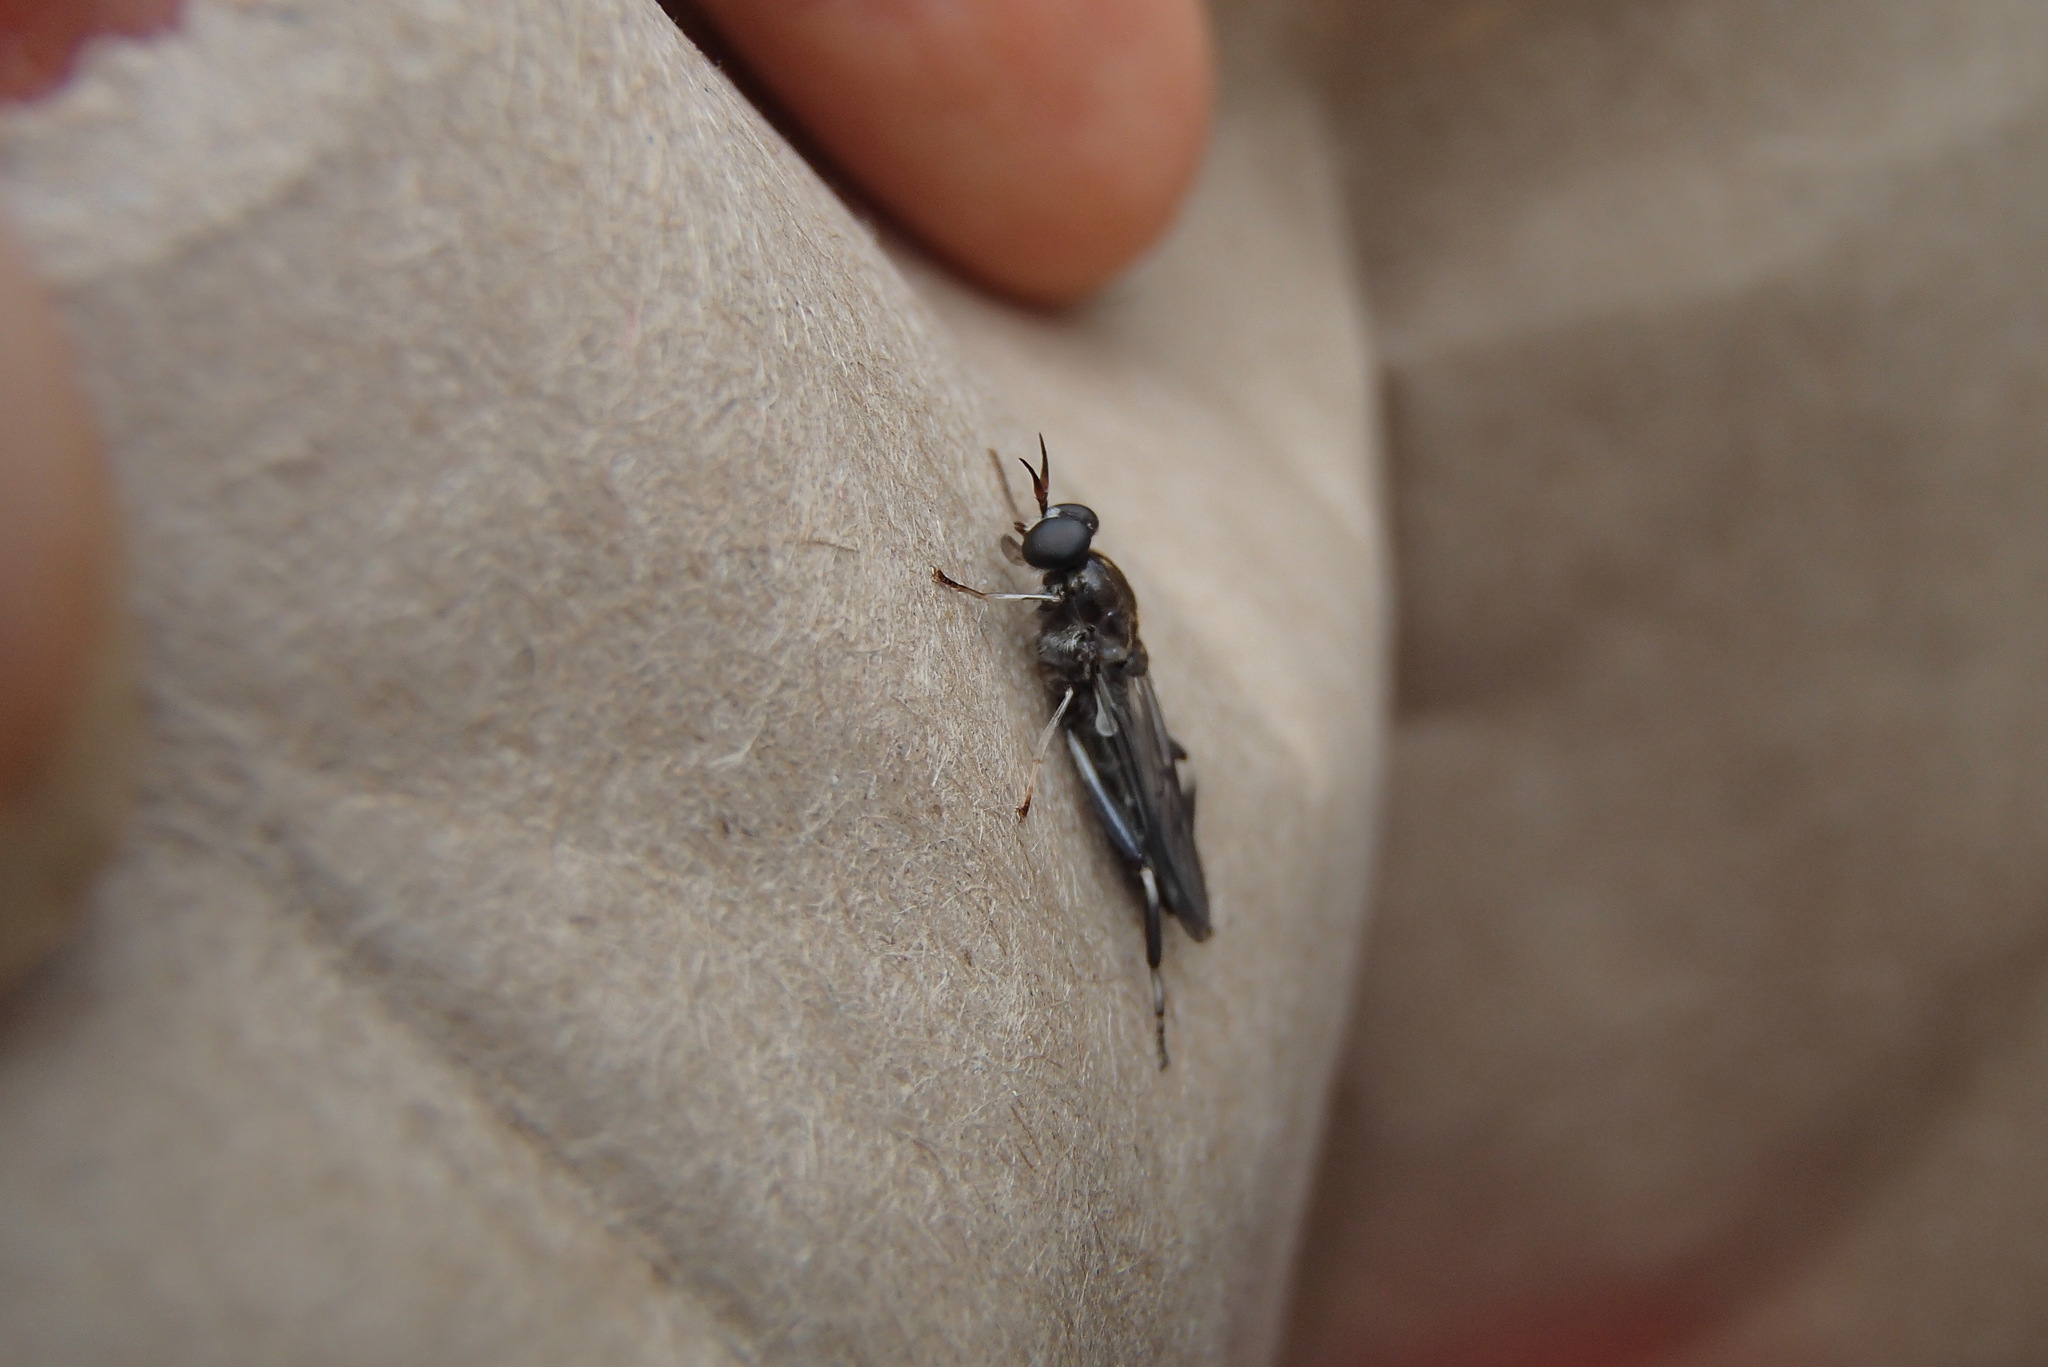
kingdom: Animalia
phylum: Arthropoda
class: Insecta
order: Diptera
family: Stratiomyidae
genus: Exaireta
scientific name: Exaireta spinigera
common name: Blue soldier fly
